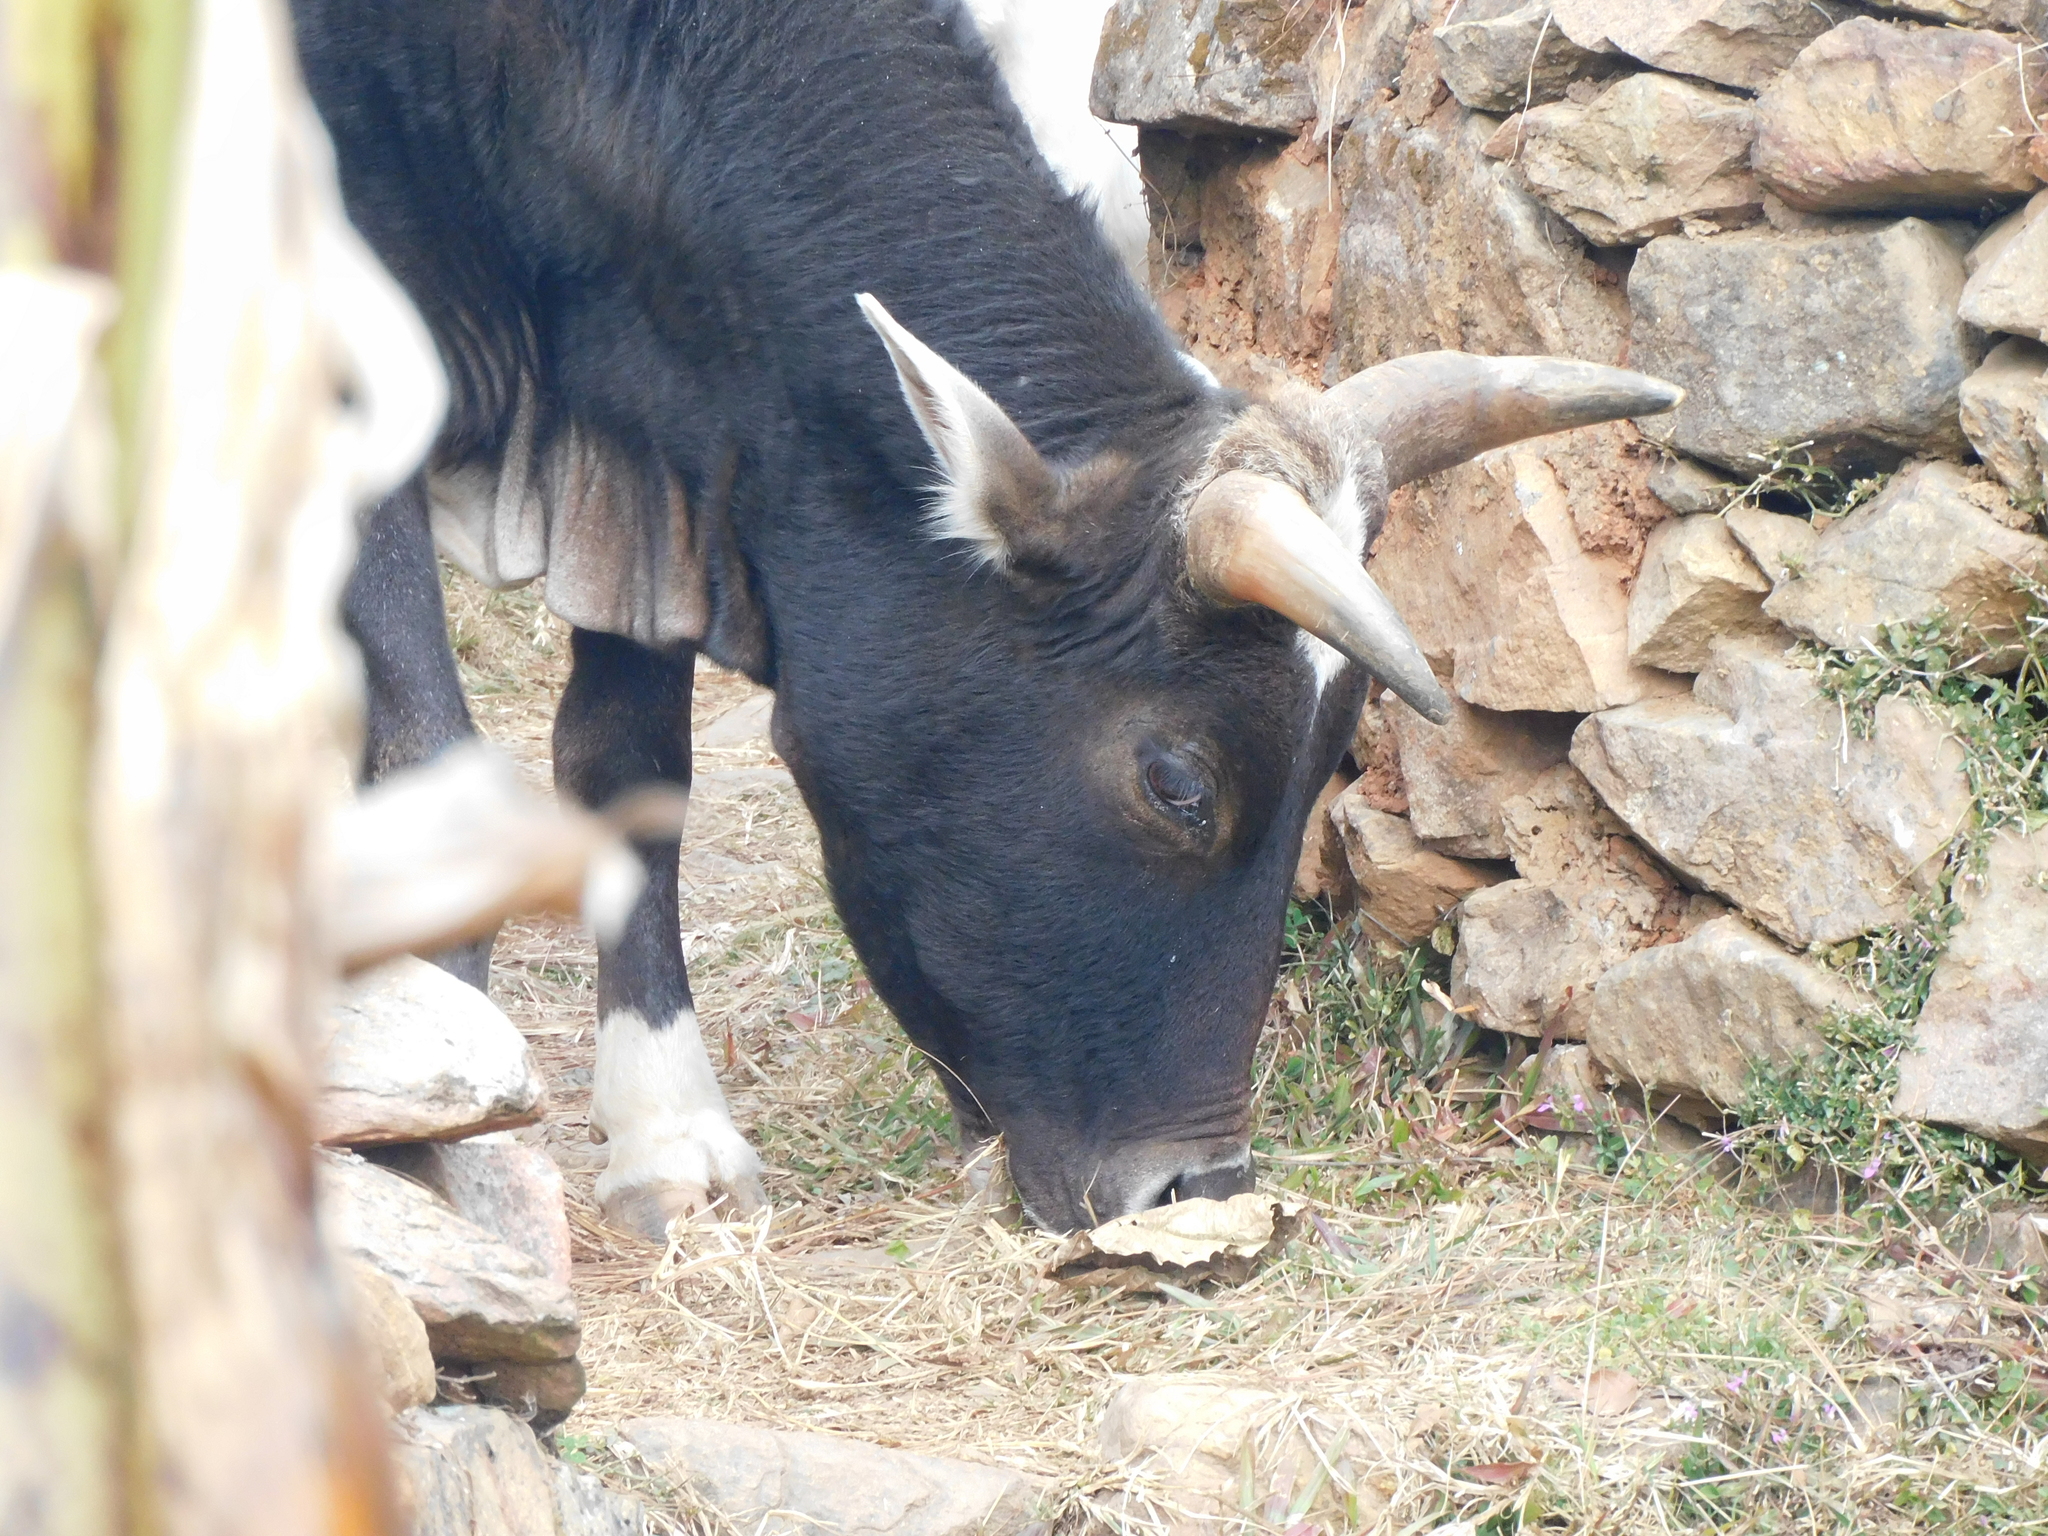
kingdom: Animalia
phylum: Chordata
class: Mammalia
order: Artiodactyla
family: Bovidae
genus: Bos
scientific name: Bos taurus
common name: Domesticated cattle
